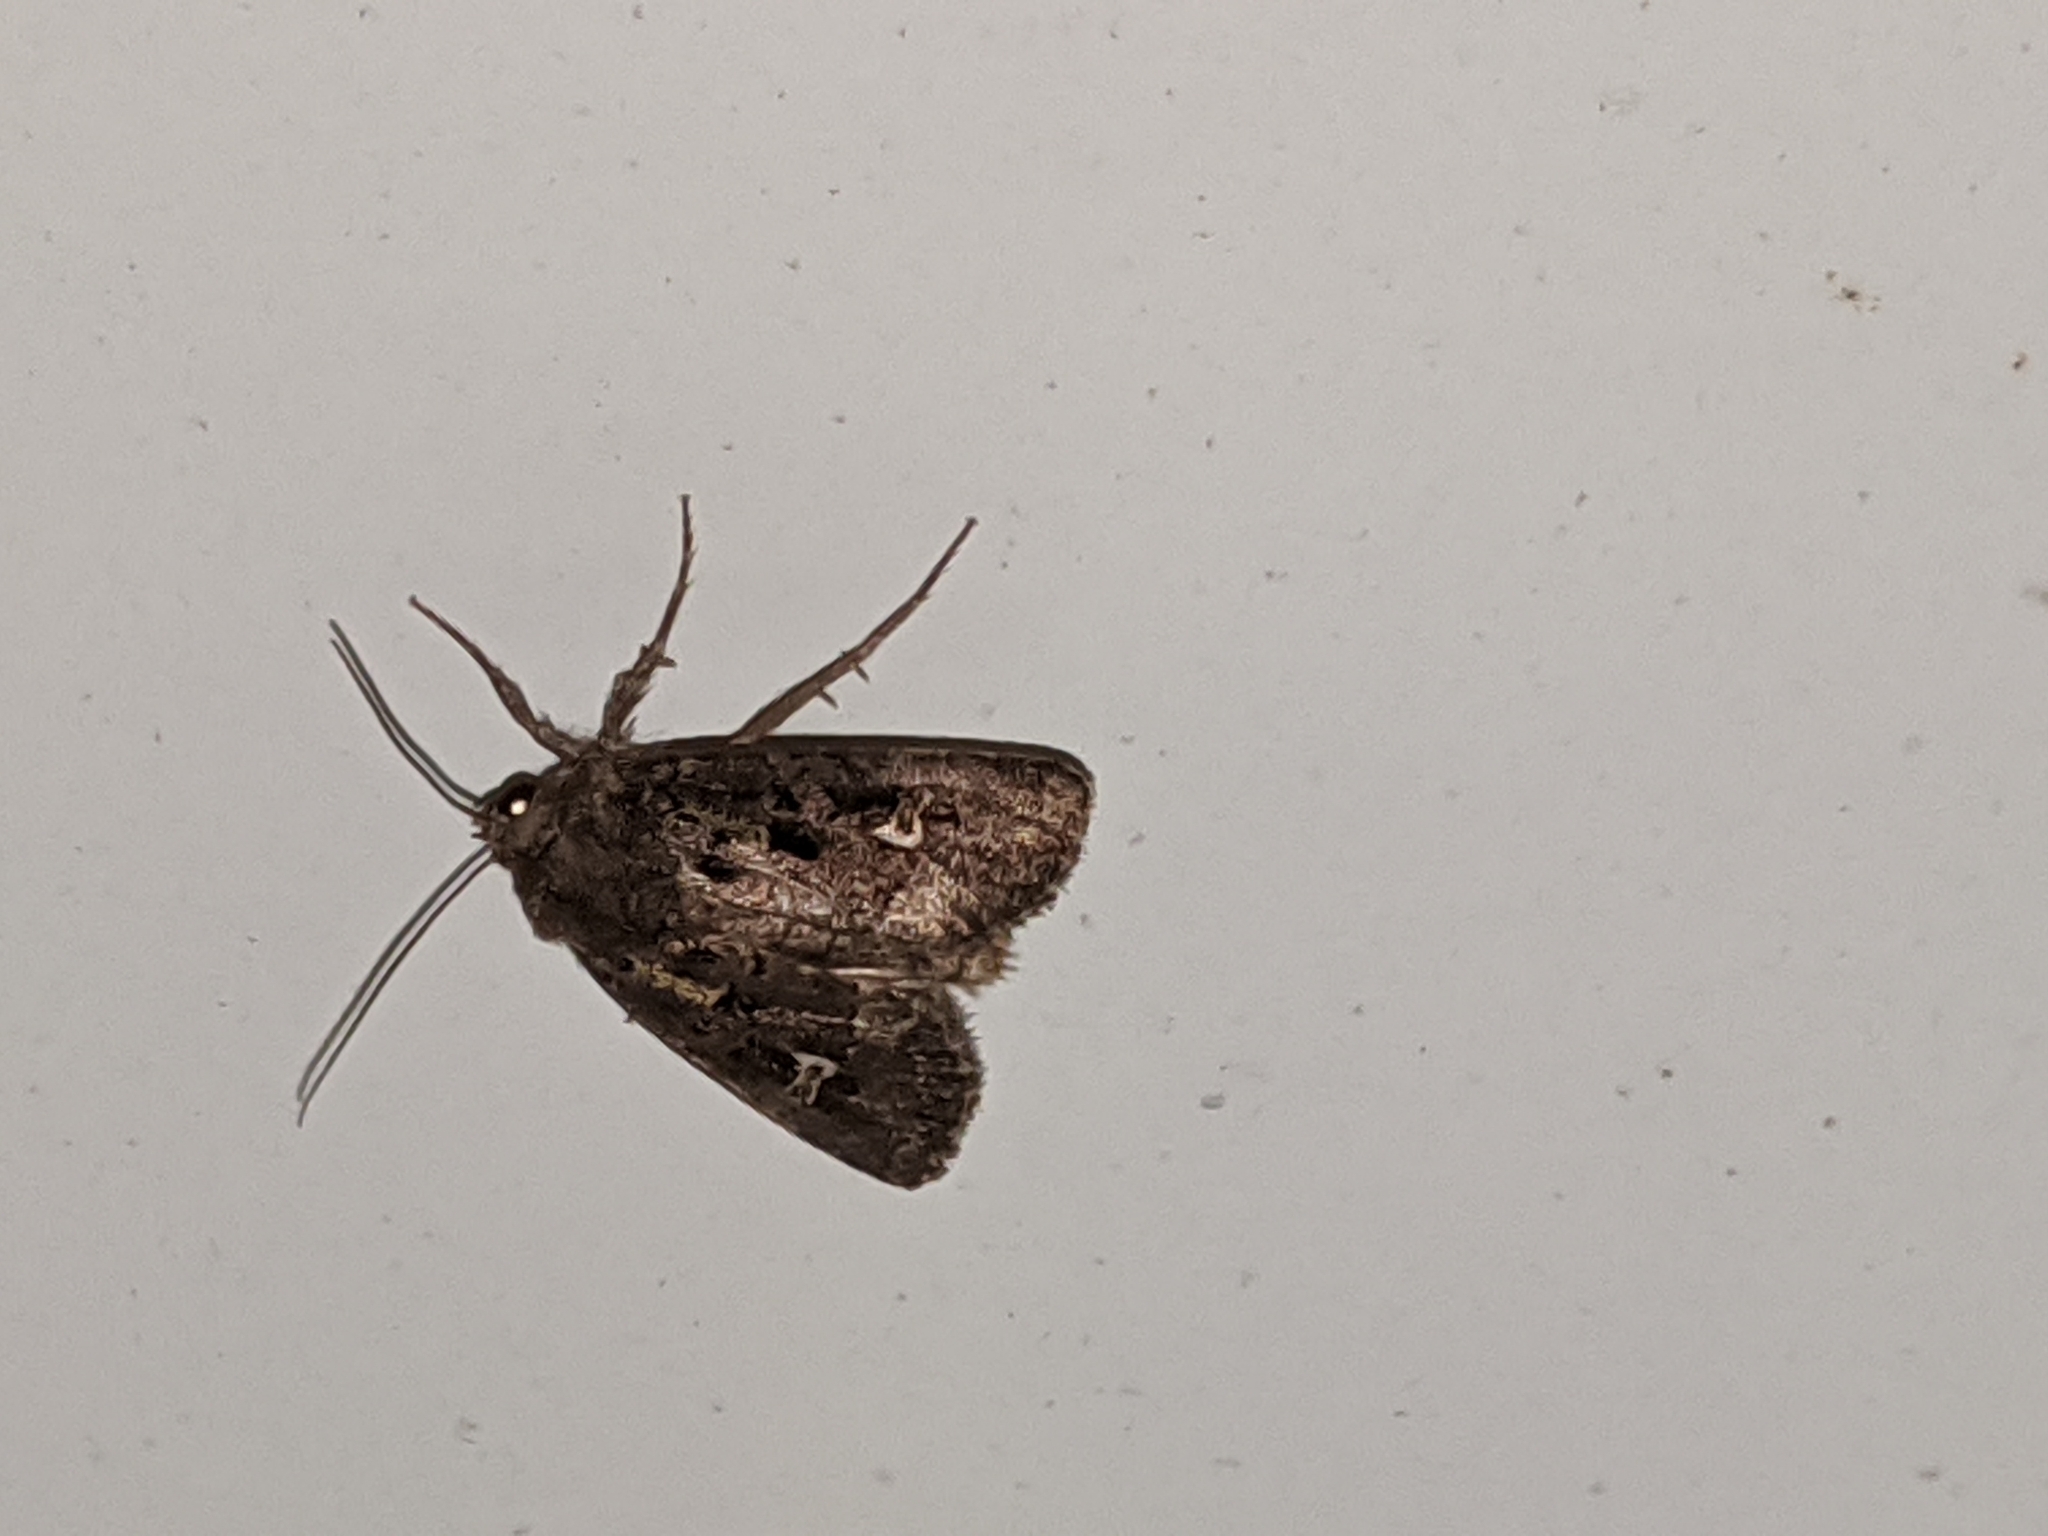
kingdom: Animalia
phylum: Arthropoda
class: Insecta
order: Lepidoptera
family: Noctuidae
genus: Lacinipolia
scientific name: Lacinipolia renigera
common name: Kidney-spotted minor
